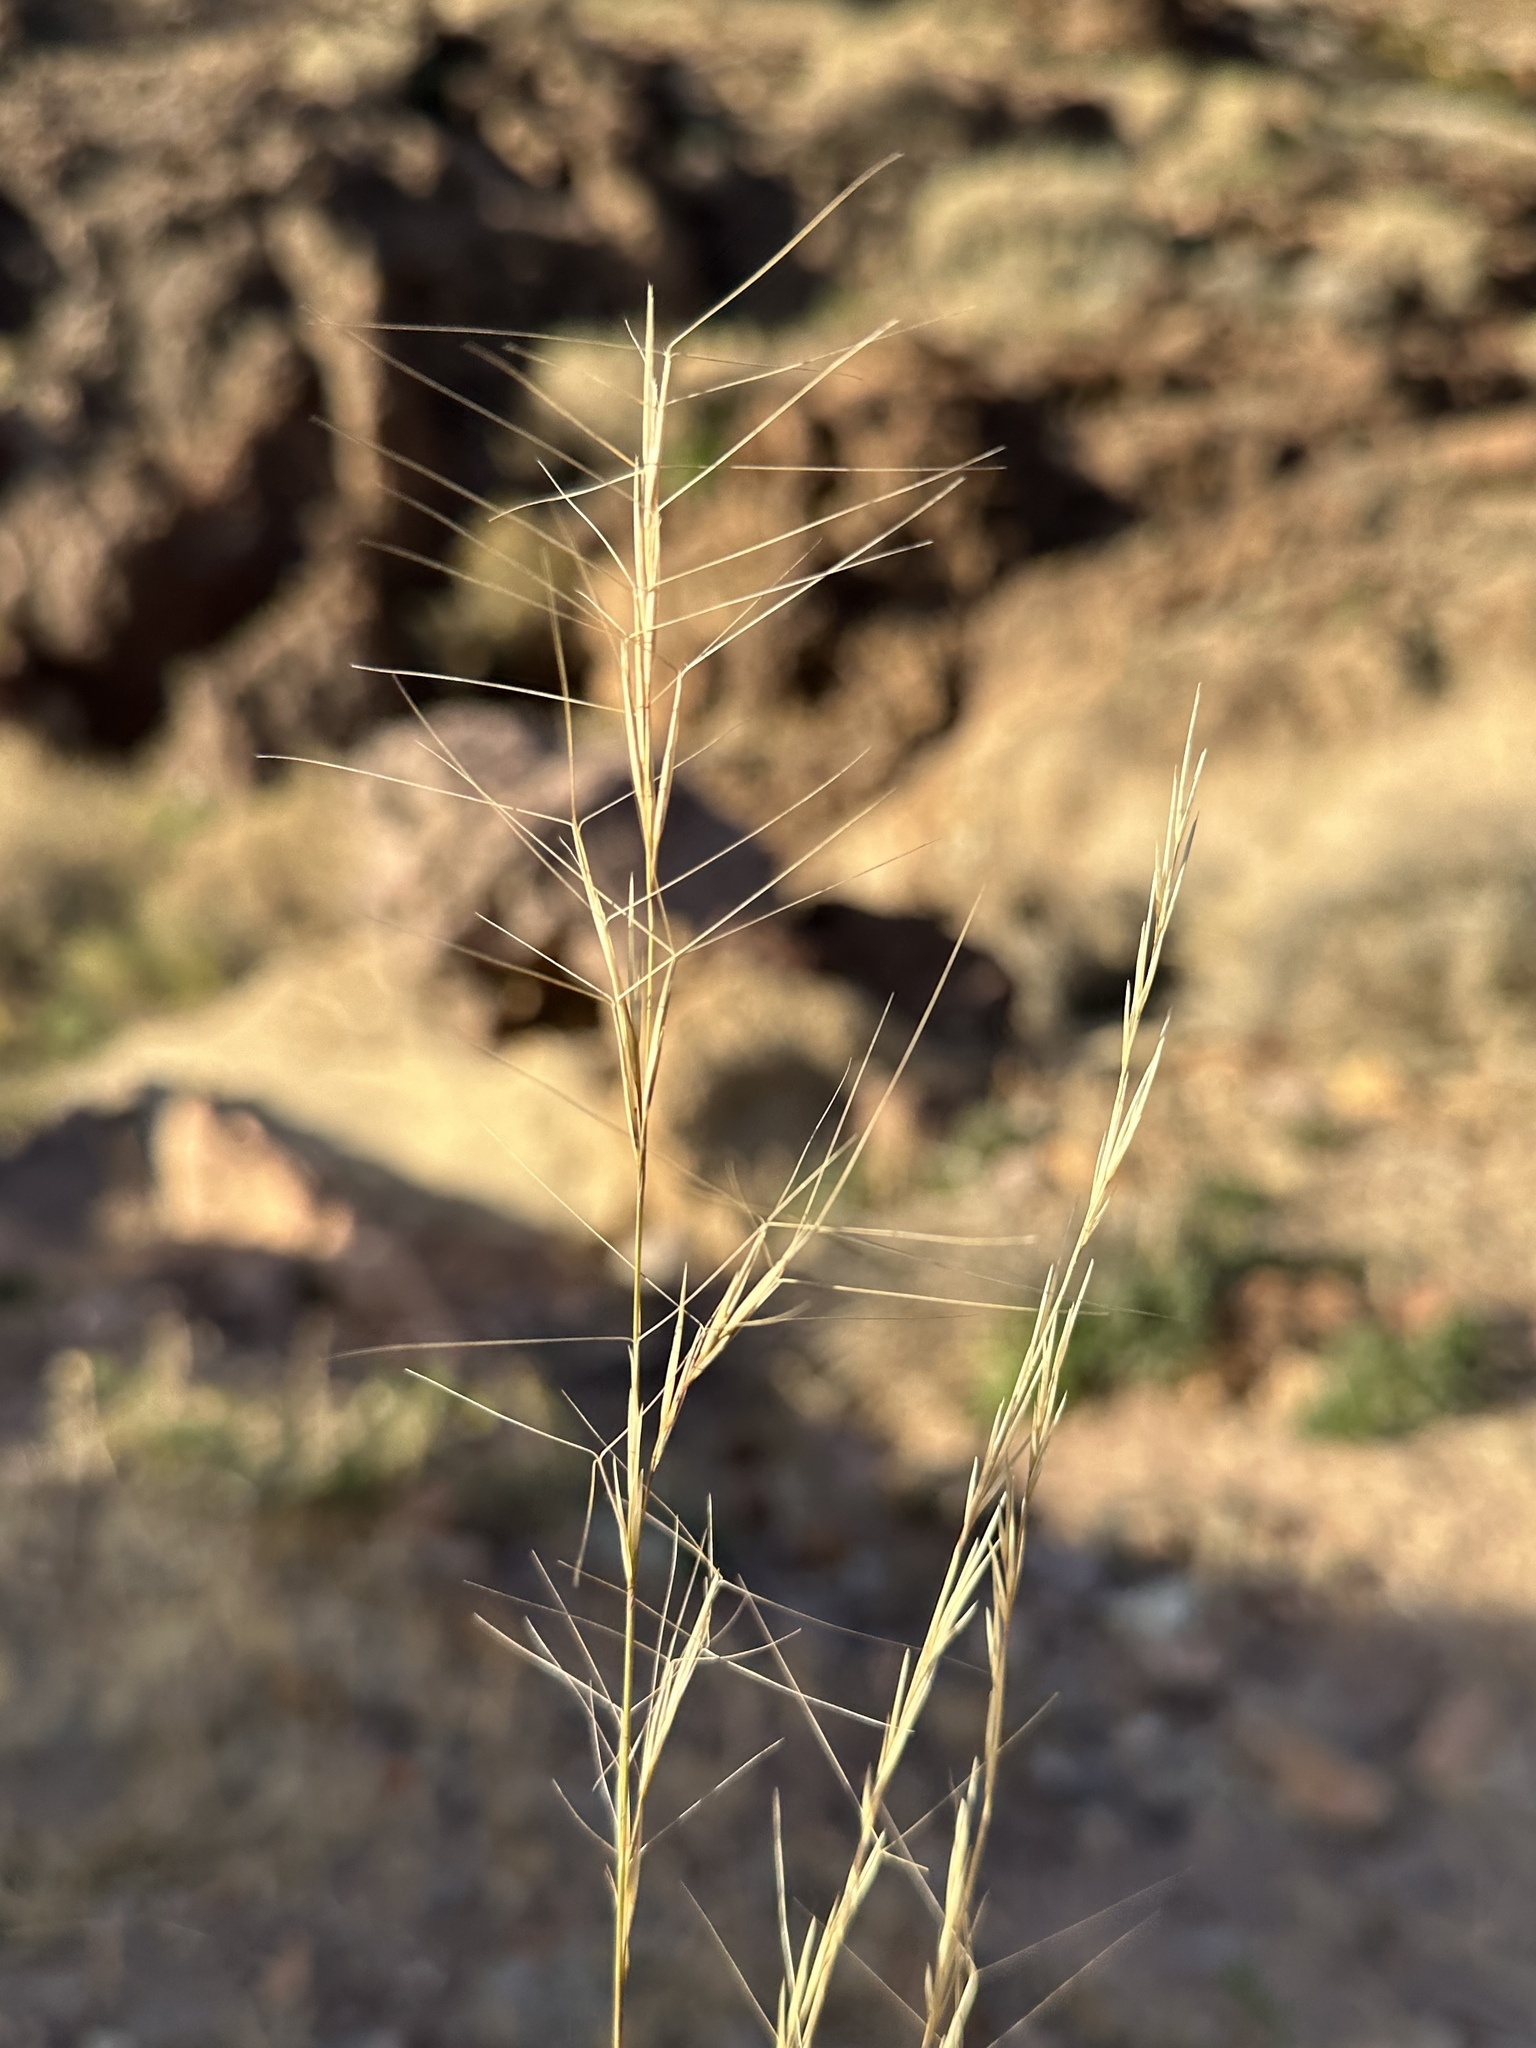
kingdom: Plantae
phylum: Tracheophyta
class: Liliopsida
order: Poales
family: Poaceae
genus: Aristida
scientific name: Aristida purpurea
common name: Purple threeawn
